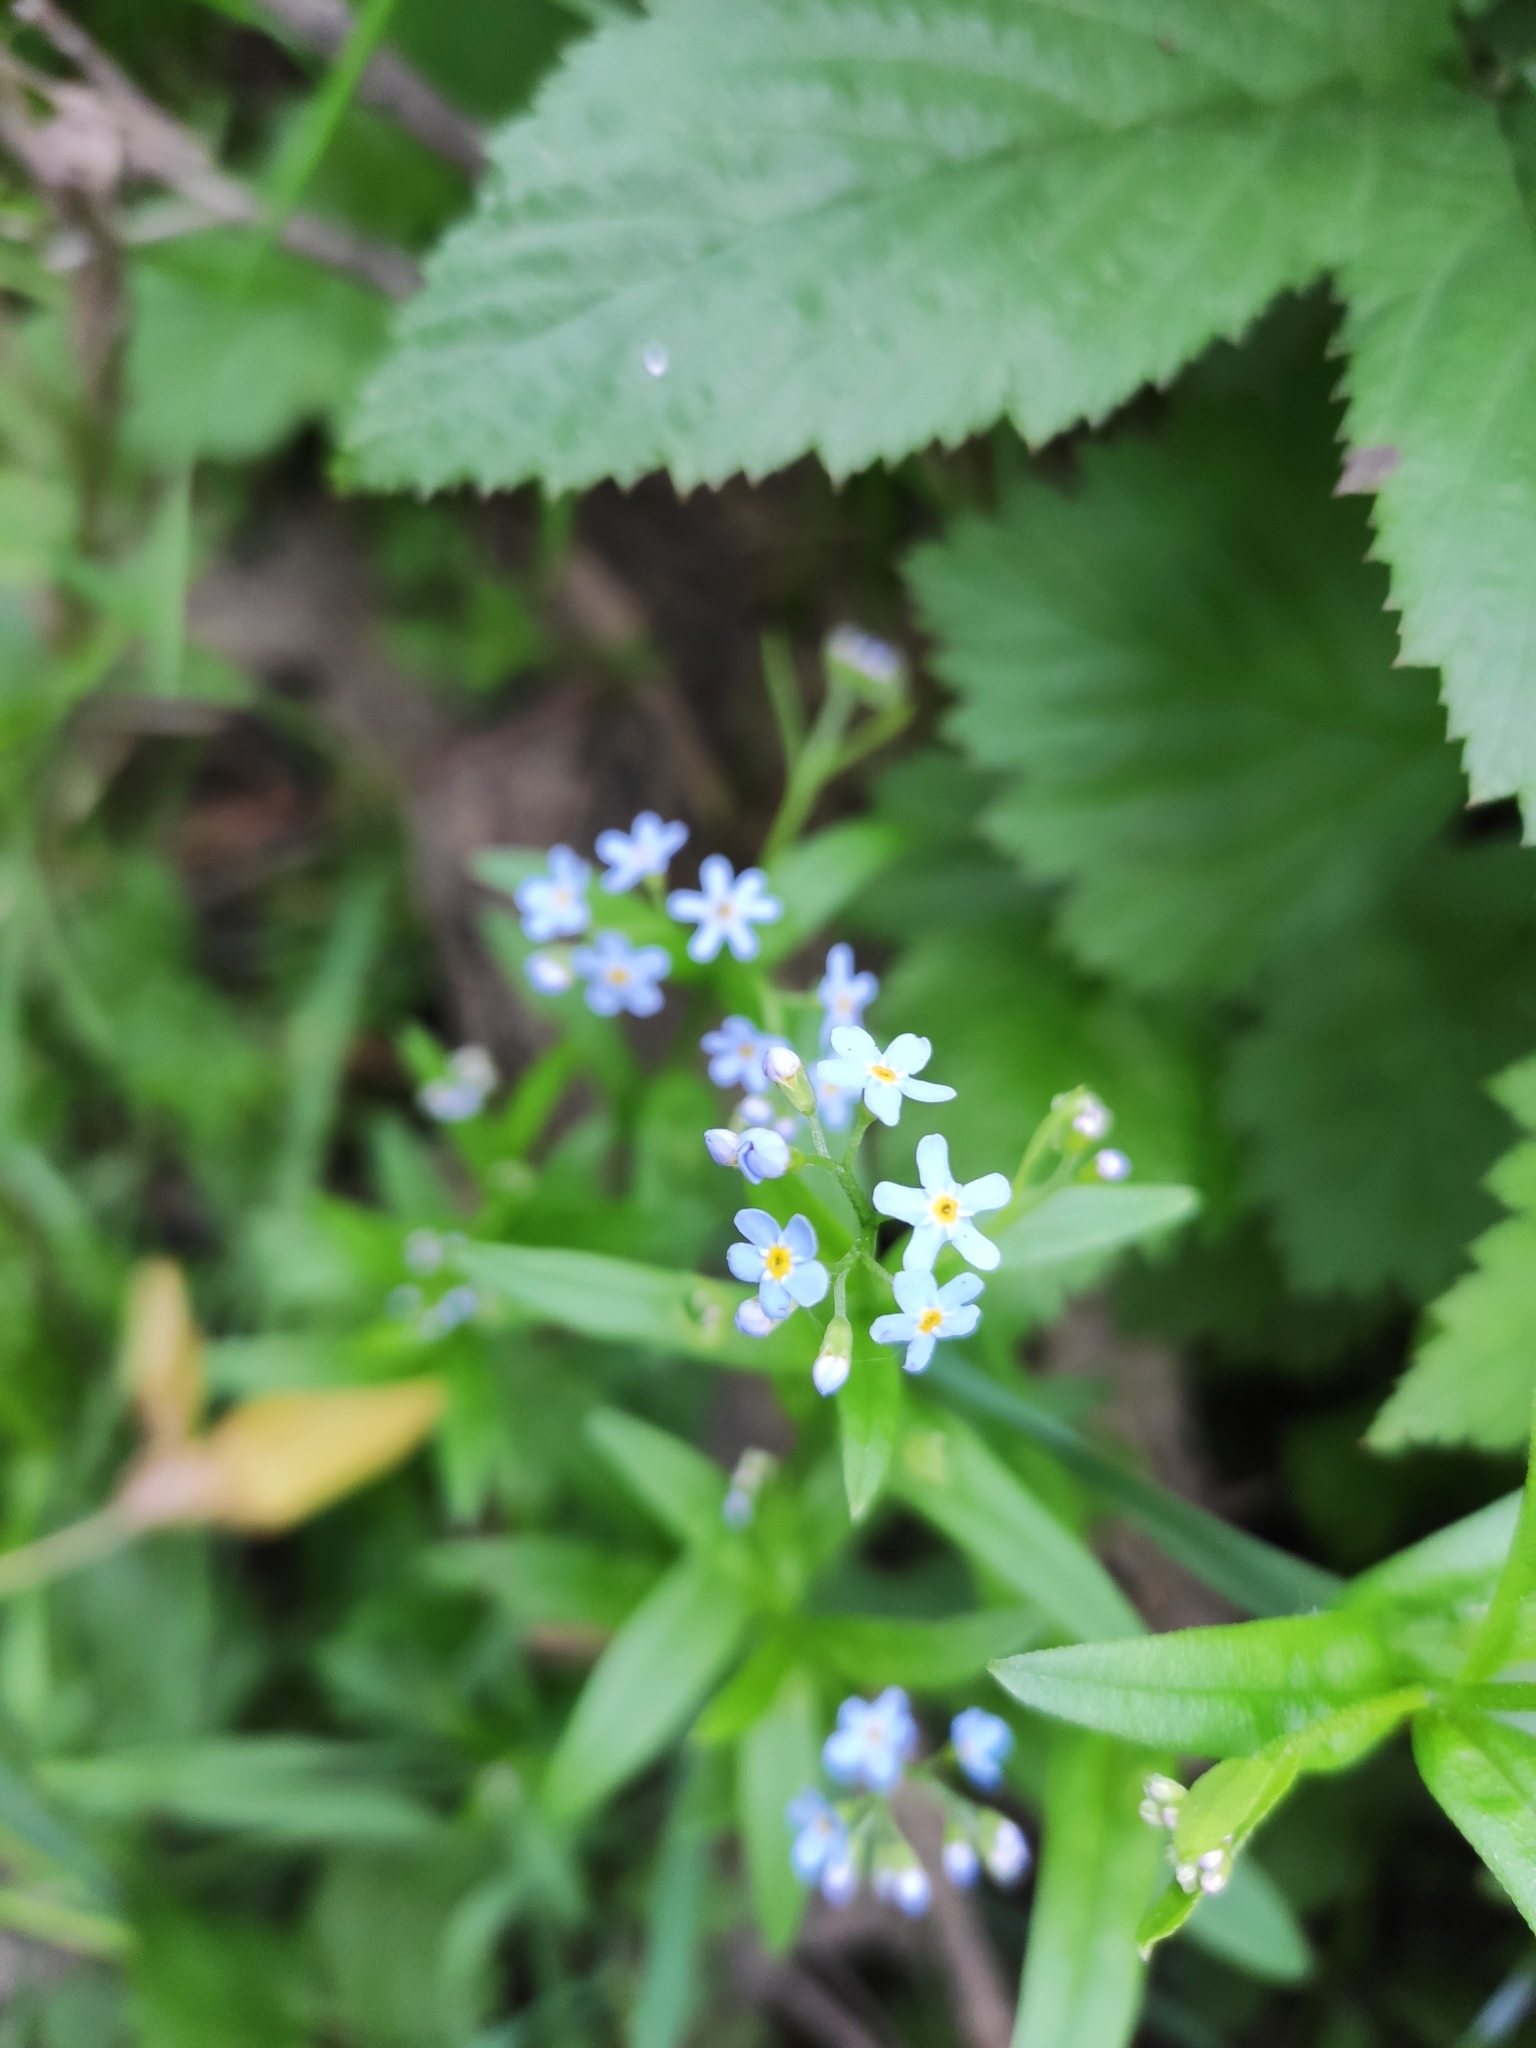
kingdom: Plantae
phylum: Tracheophyta
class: Magnoliopsida
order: Boraginales
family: Boraginaceae
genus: Myosotis
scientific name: Myosotis scorpioides
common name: Water forget-me-not
